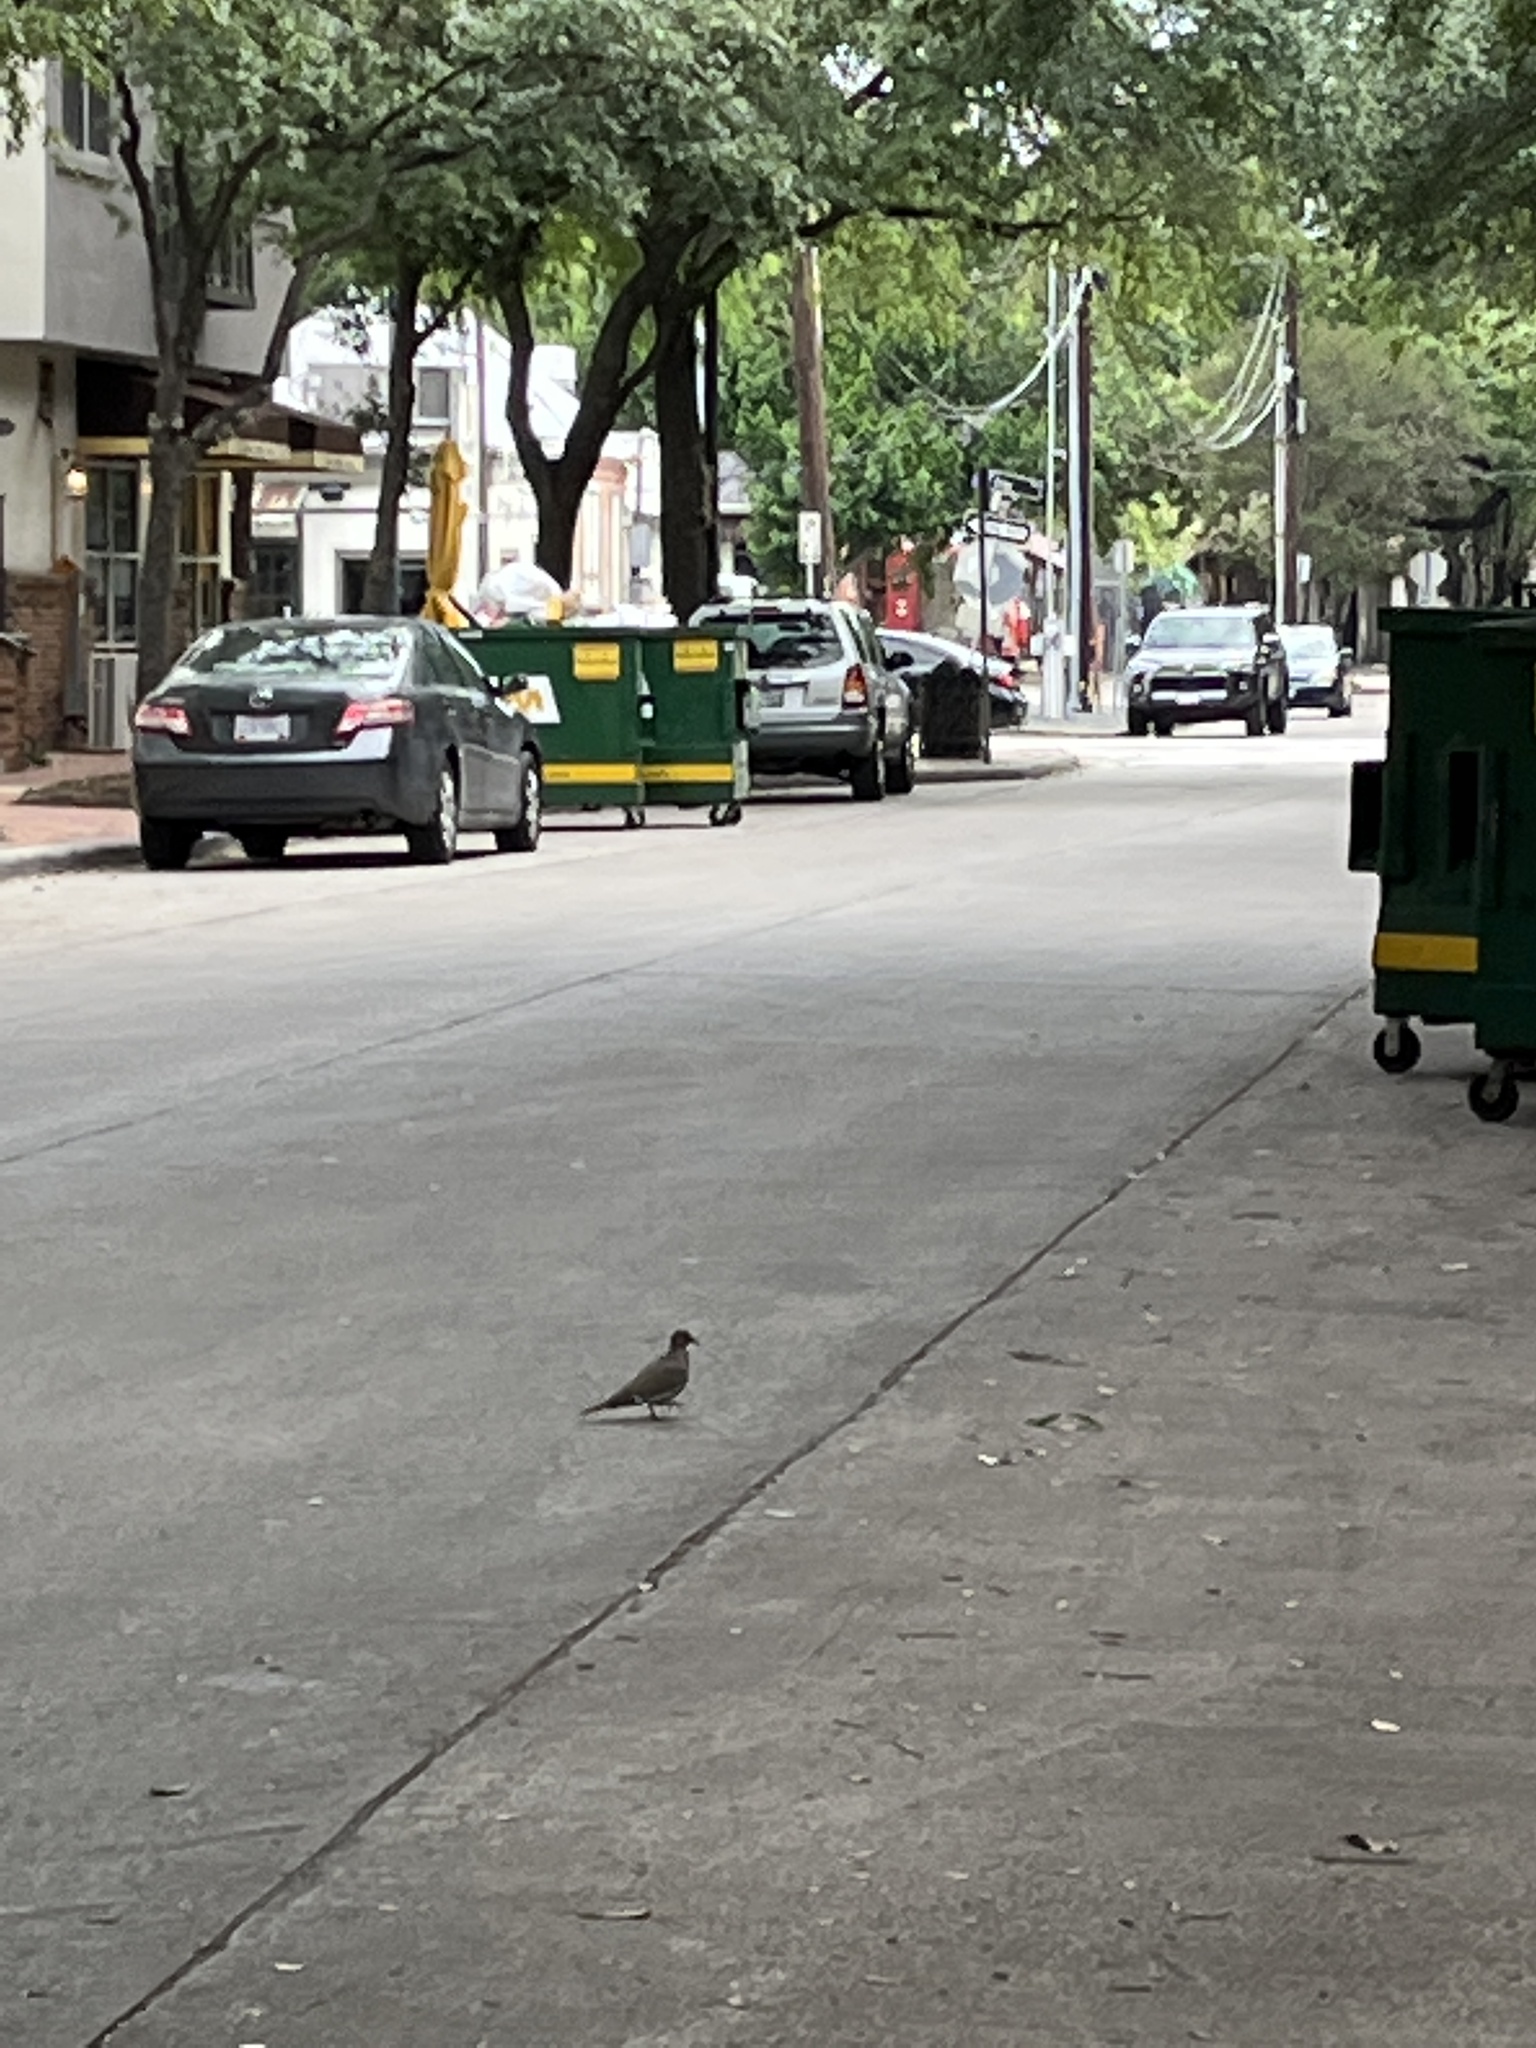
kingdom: Animalia
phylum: Chordata
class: Aves
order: Columbiformes
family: Columbidae
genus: Zenaida
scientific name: Zenaida asiatica
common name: White-winged dove
